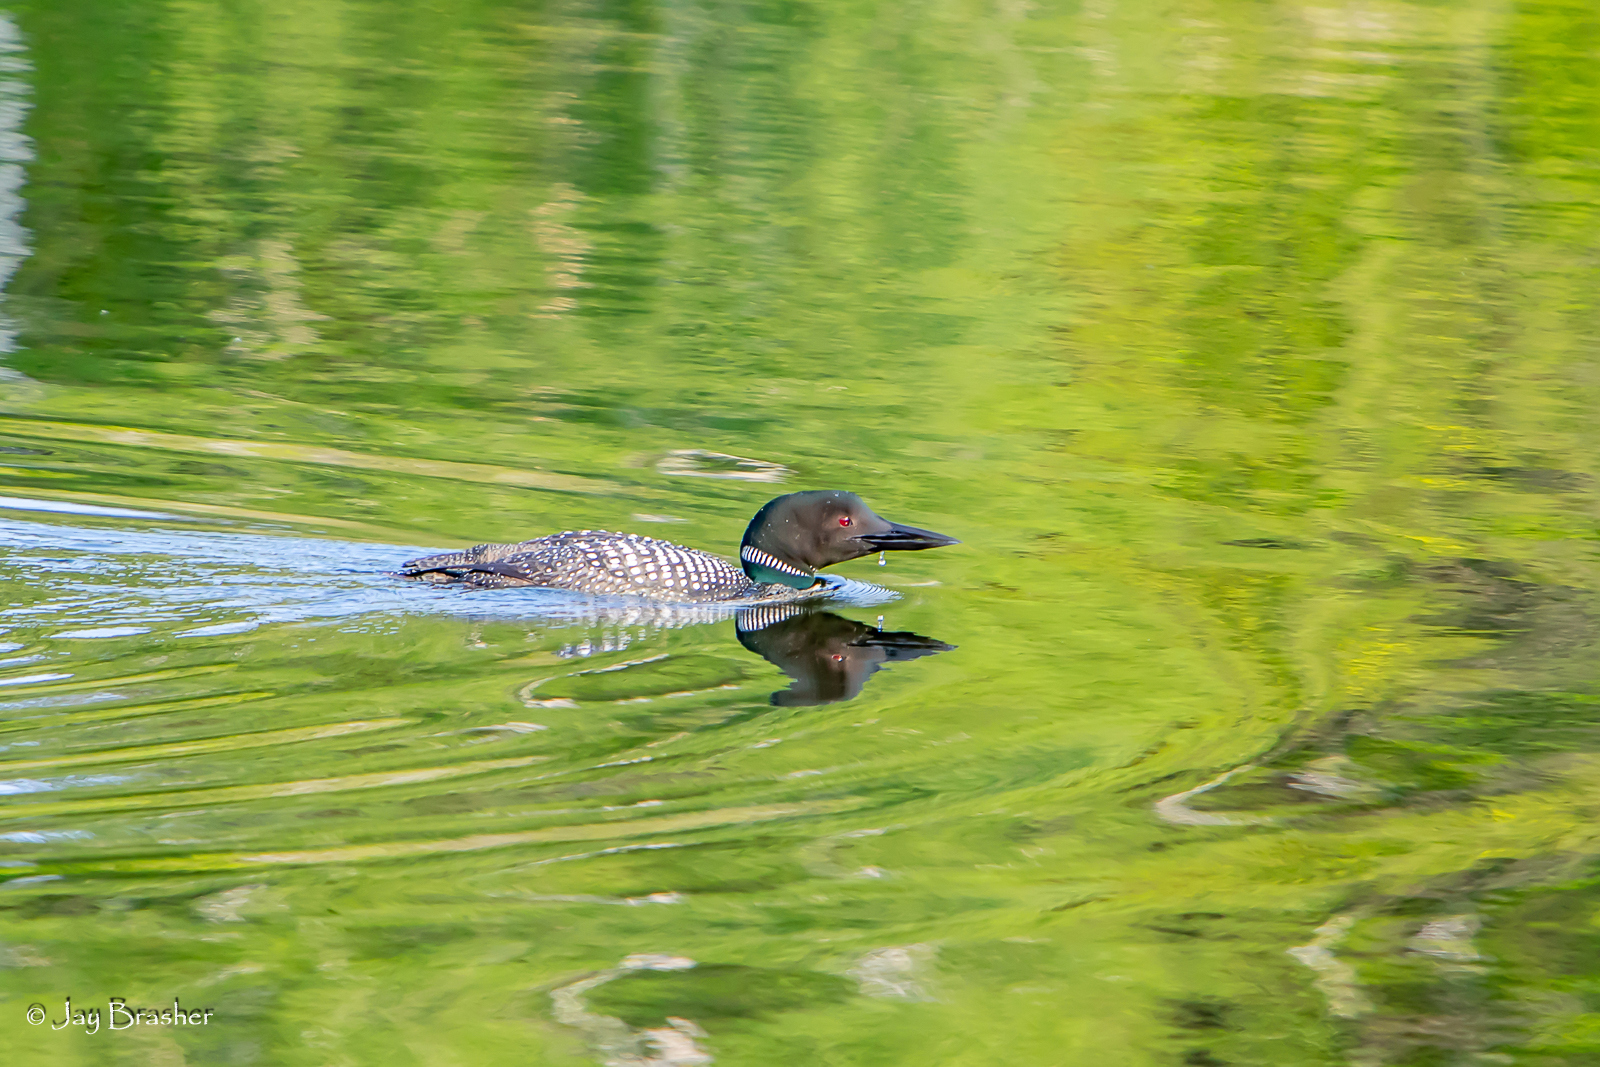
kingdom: Animalia
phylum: Chordata
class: Aves
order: Gaviiformes
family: Gaviidae
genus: Gavia
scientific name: Gavia immer
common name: Common loon
